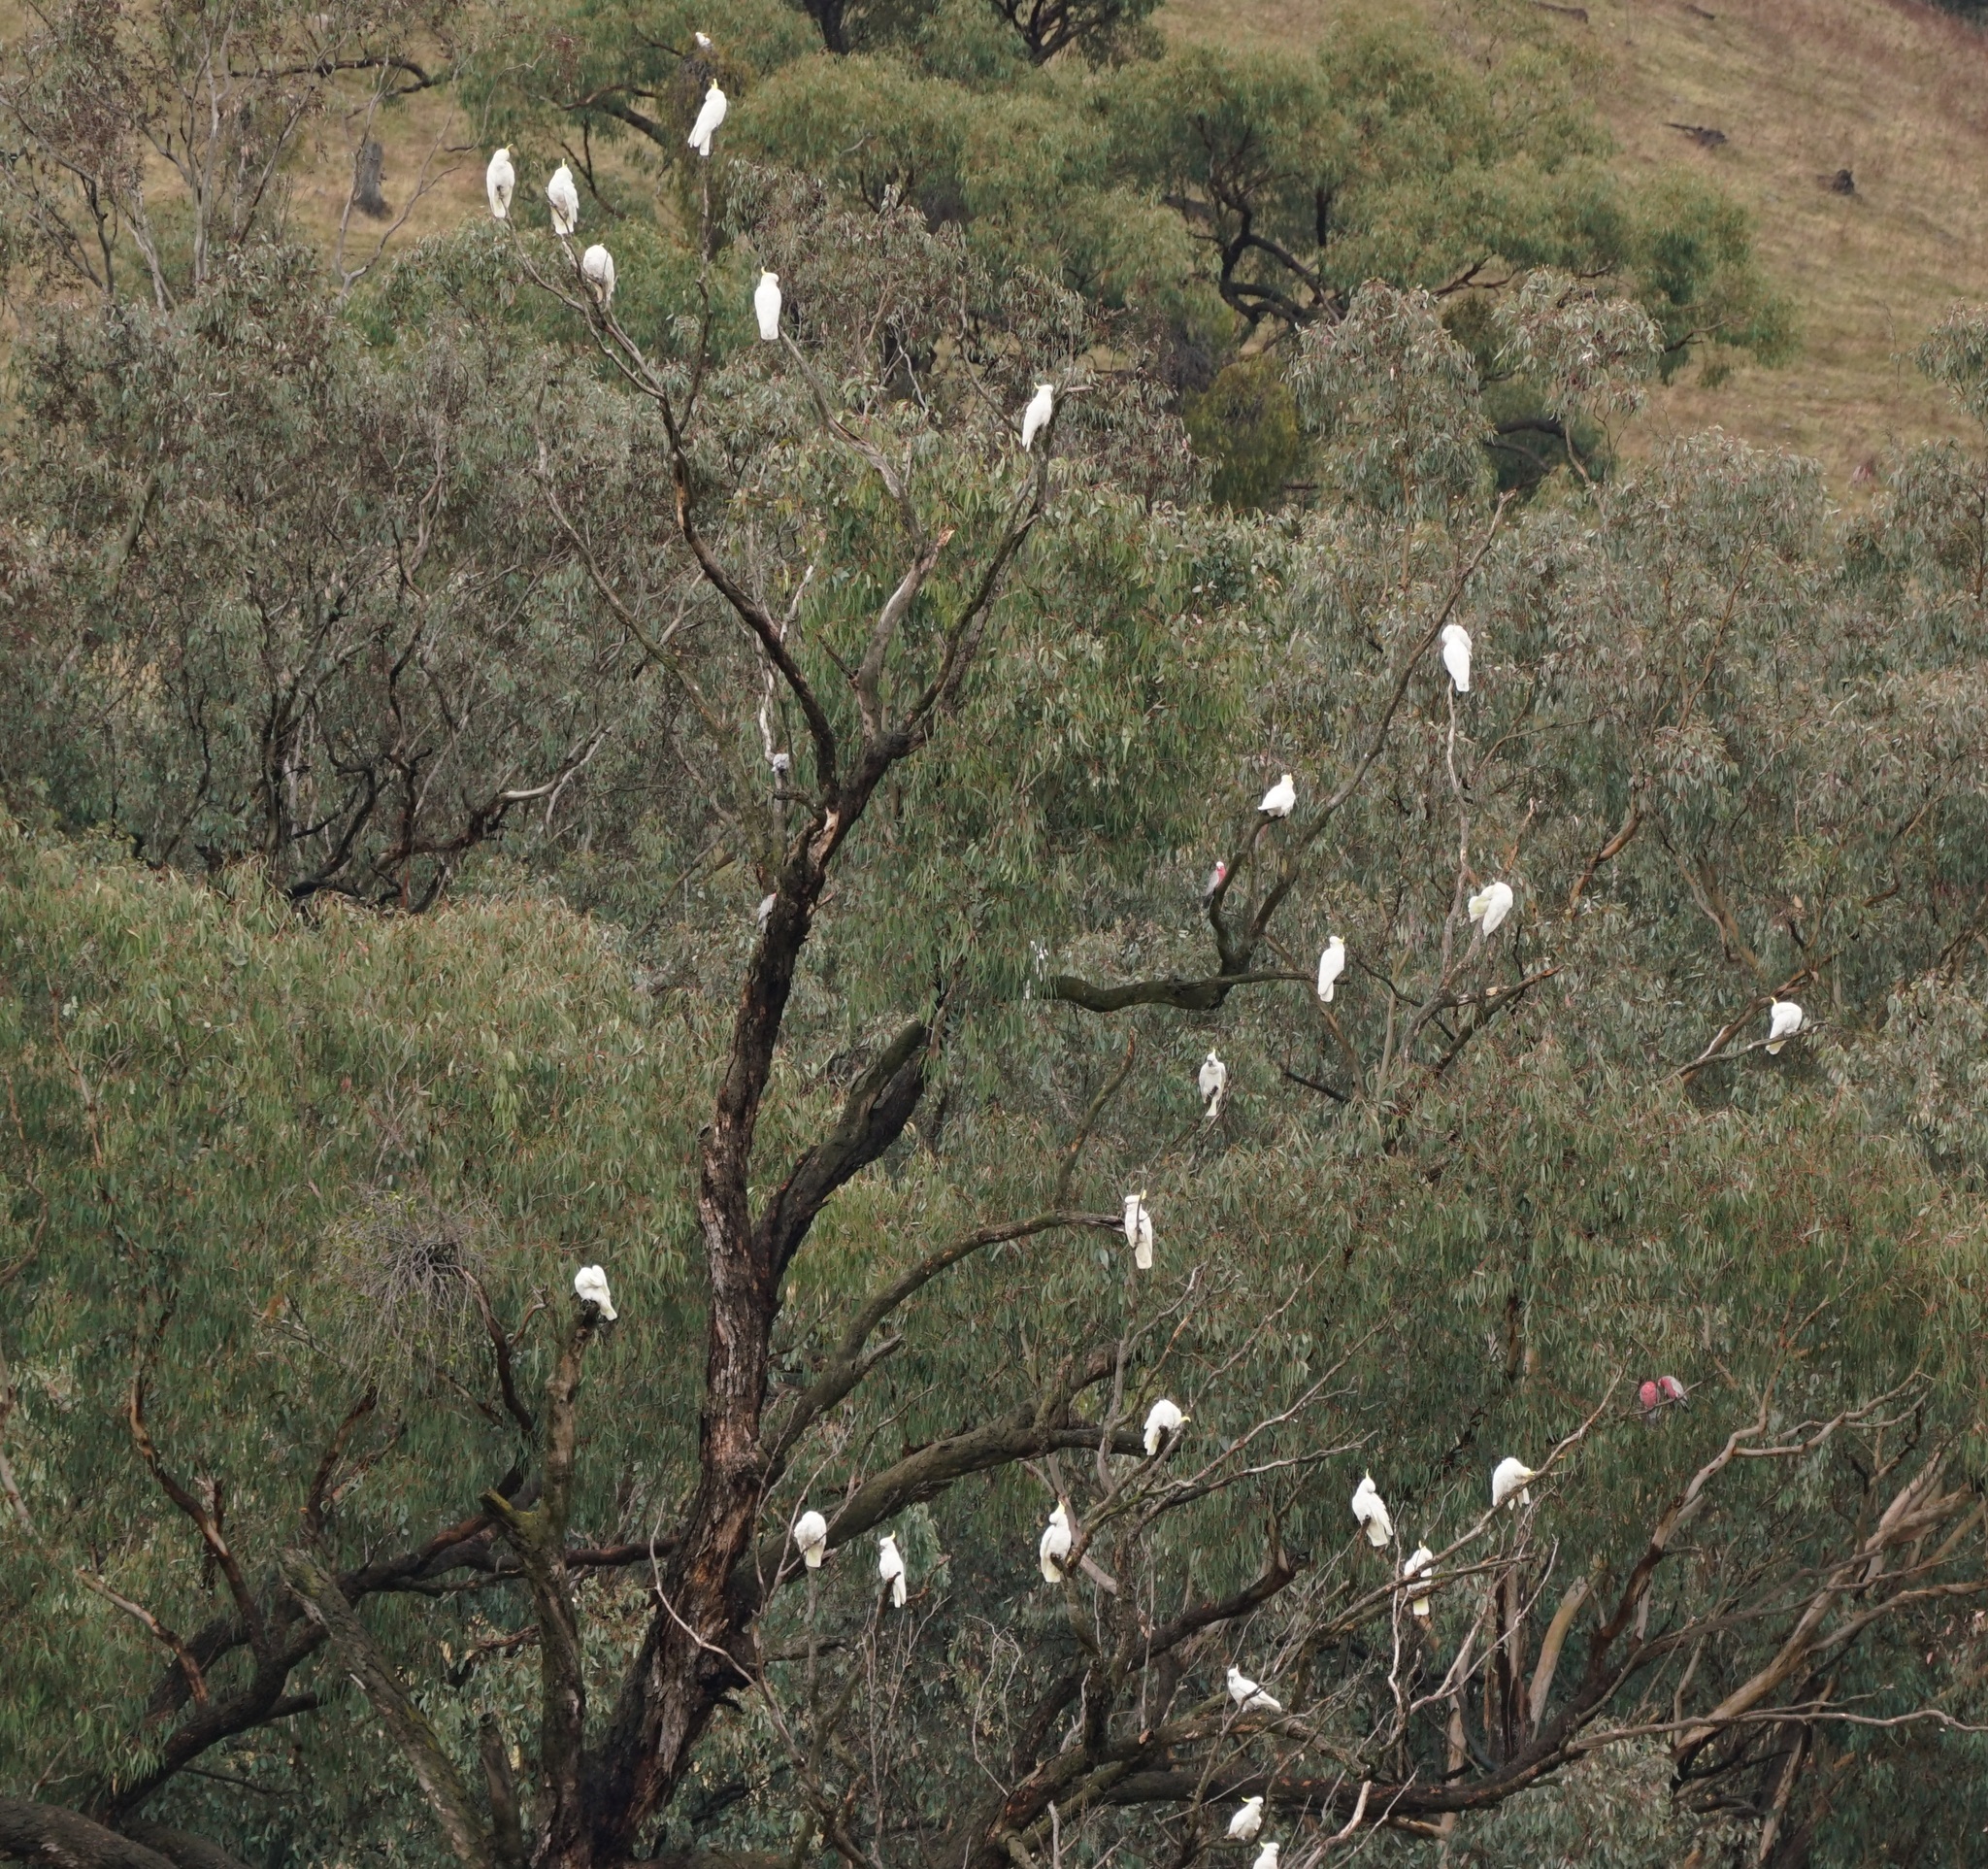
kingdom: Animalia
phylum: Chordata
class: Aves
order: Psittaciformes
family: Psittacidae
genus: Cacatua
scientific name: Cacatua galerita
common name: Sulphur-crested cockatoo
